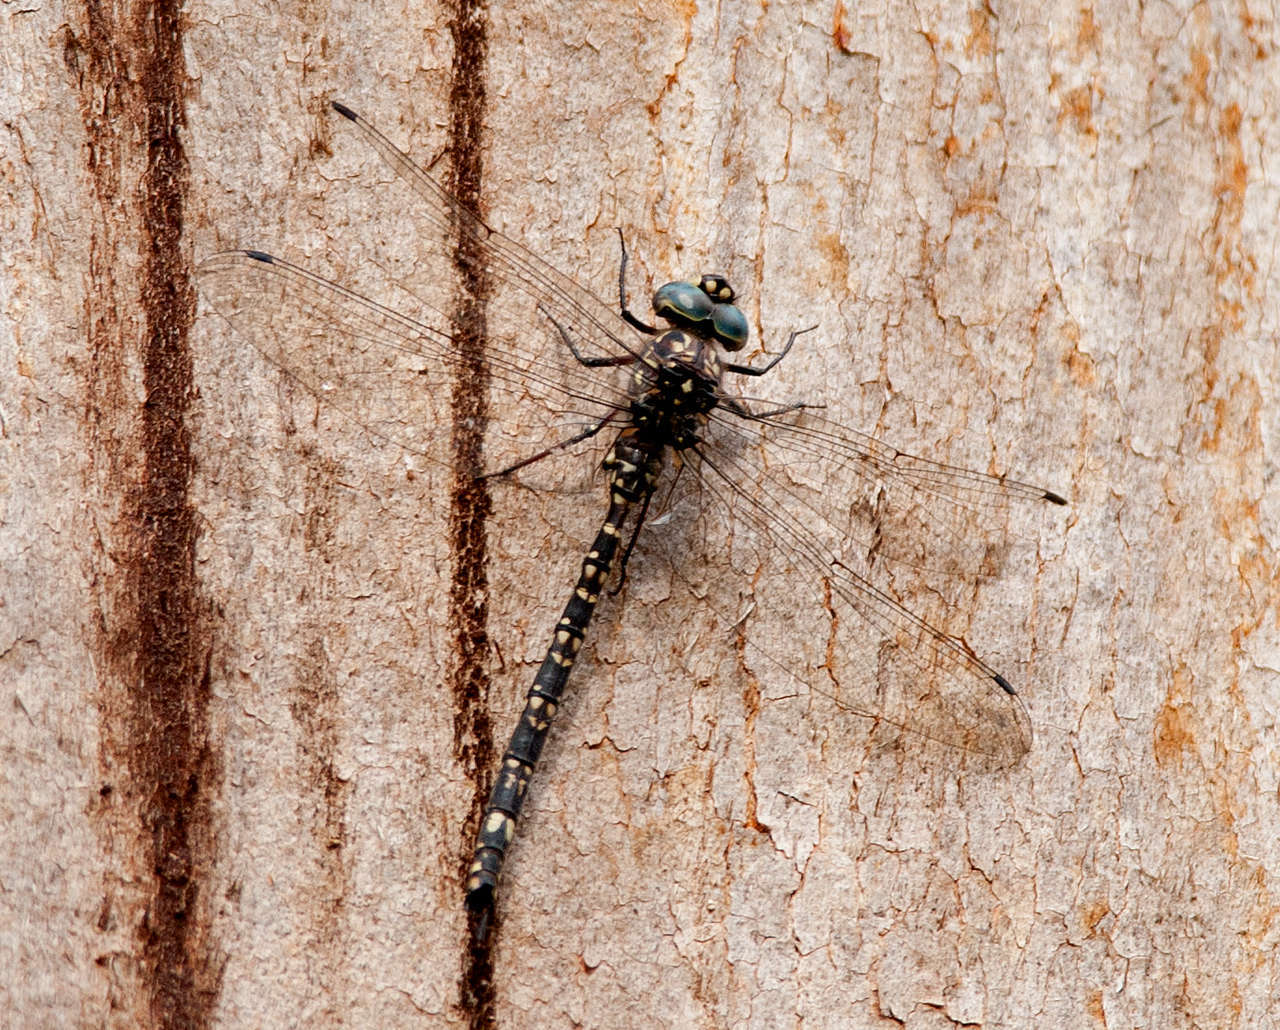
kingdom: Animalia
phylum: Arthropoda
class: Insecta
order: Odonata
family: Aeshnidae
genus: Austroaeschna
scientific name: Austroaeschna parvistigma
